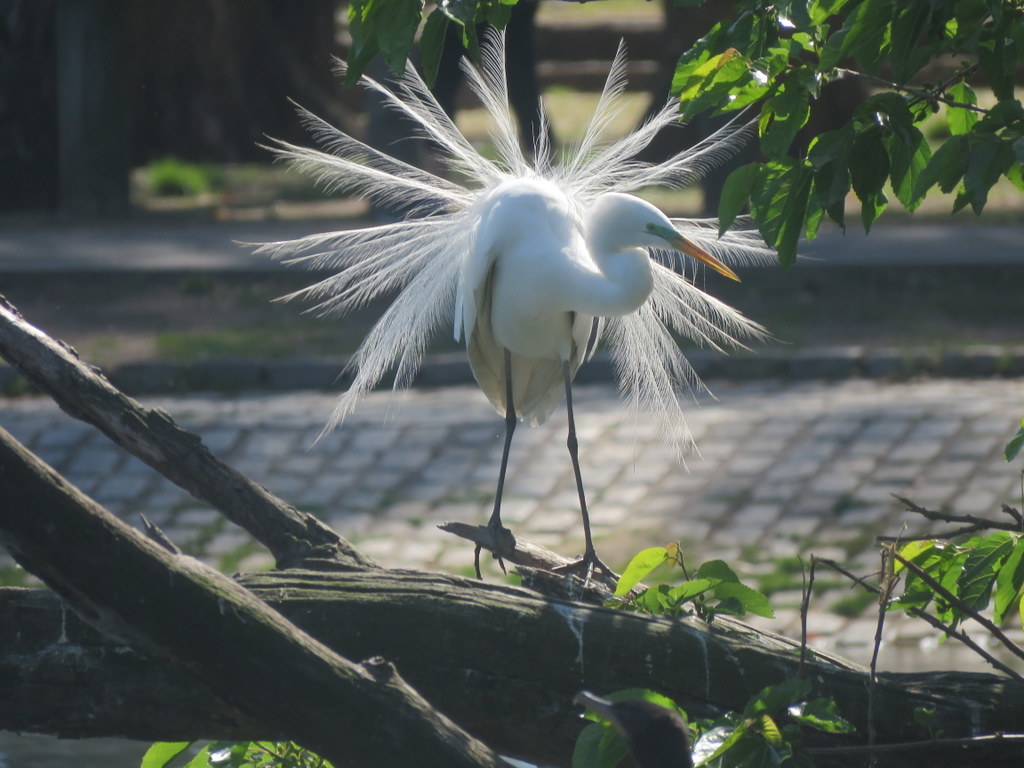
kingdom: Animalia
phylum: Chordata
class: Aves
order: Pelecaniformes
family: Ardeidae
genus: Ardea
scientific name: Ardea alba
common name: Great egret
